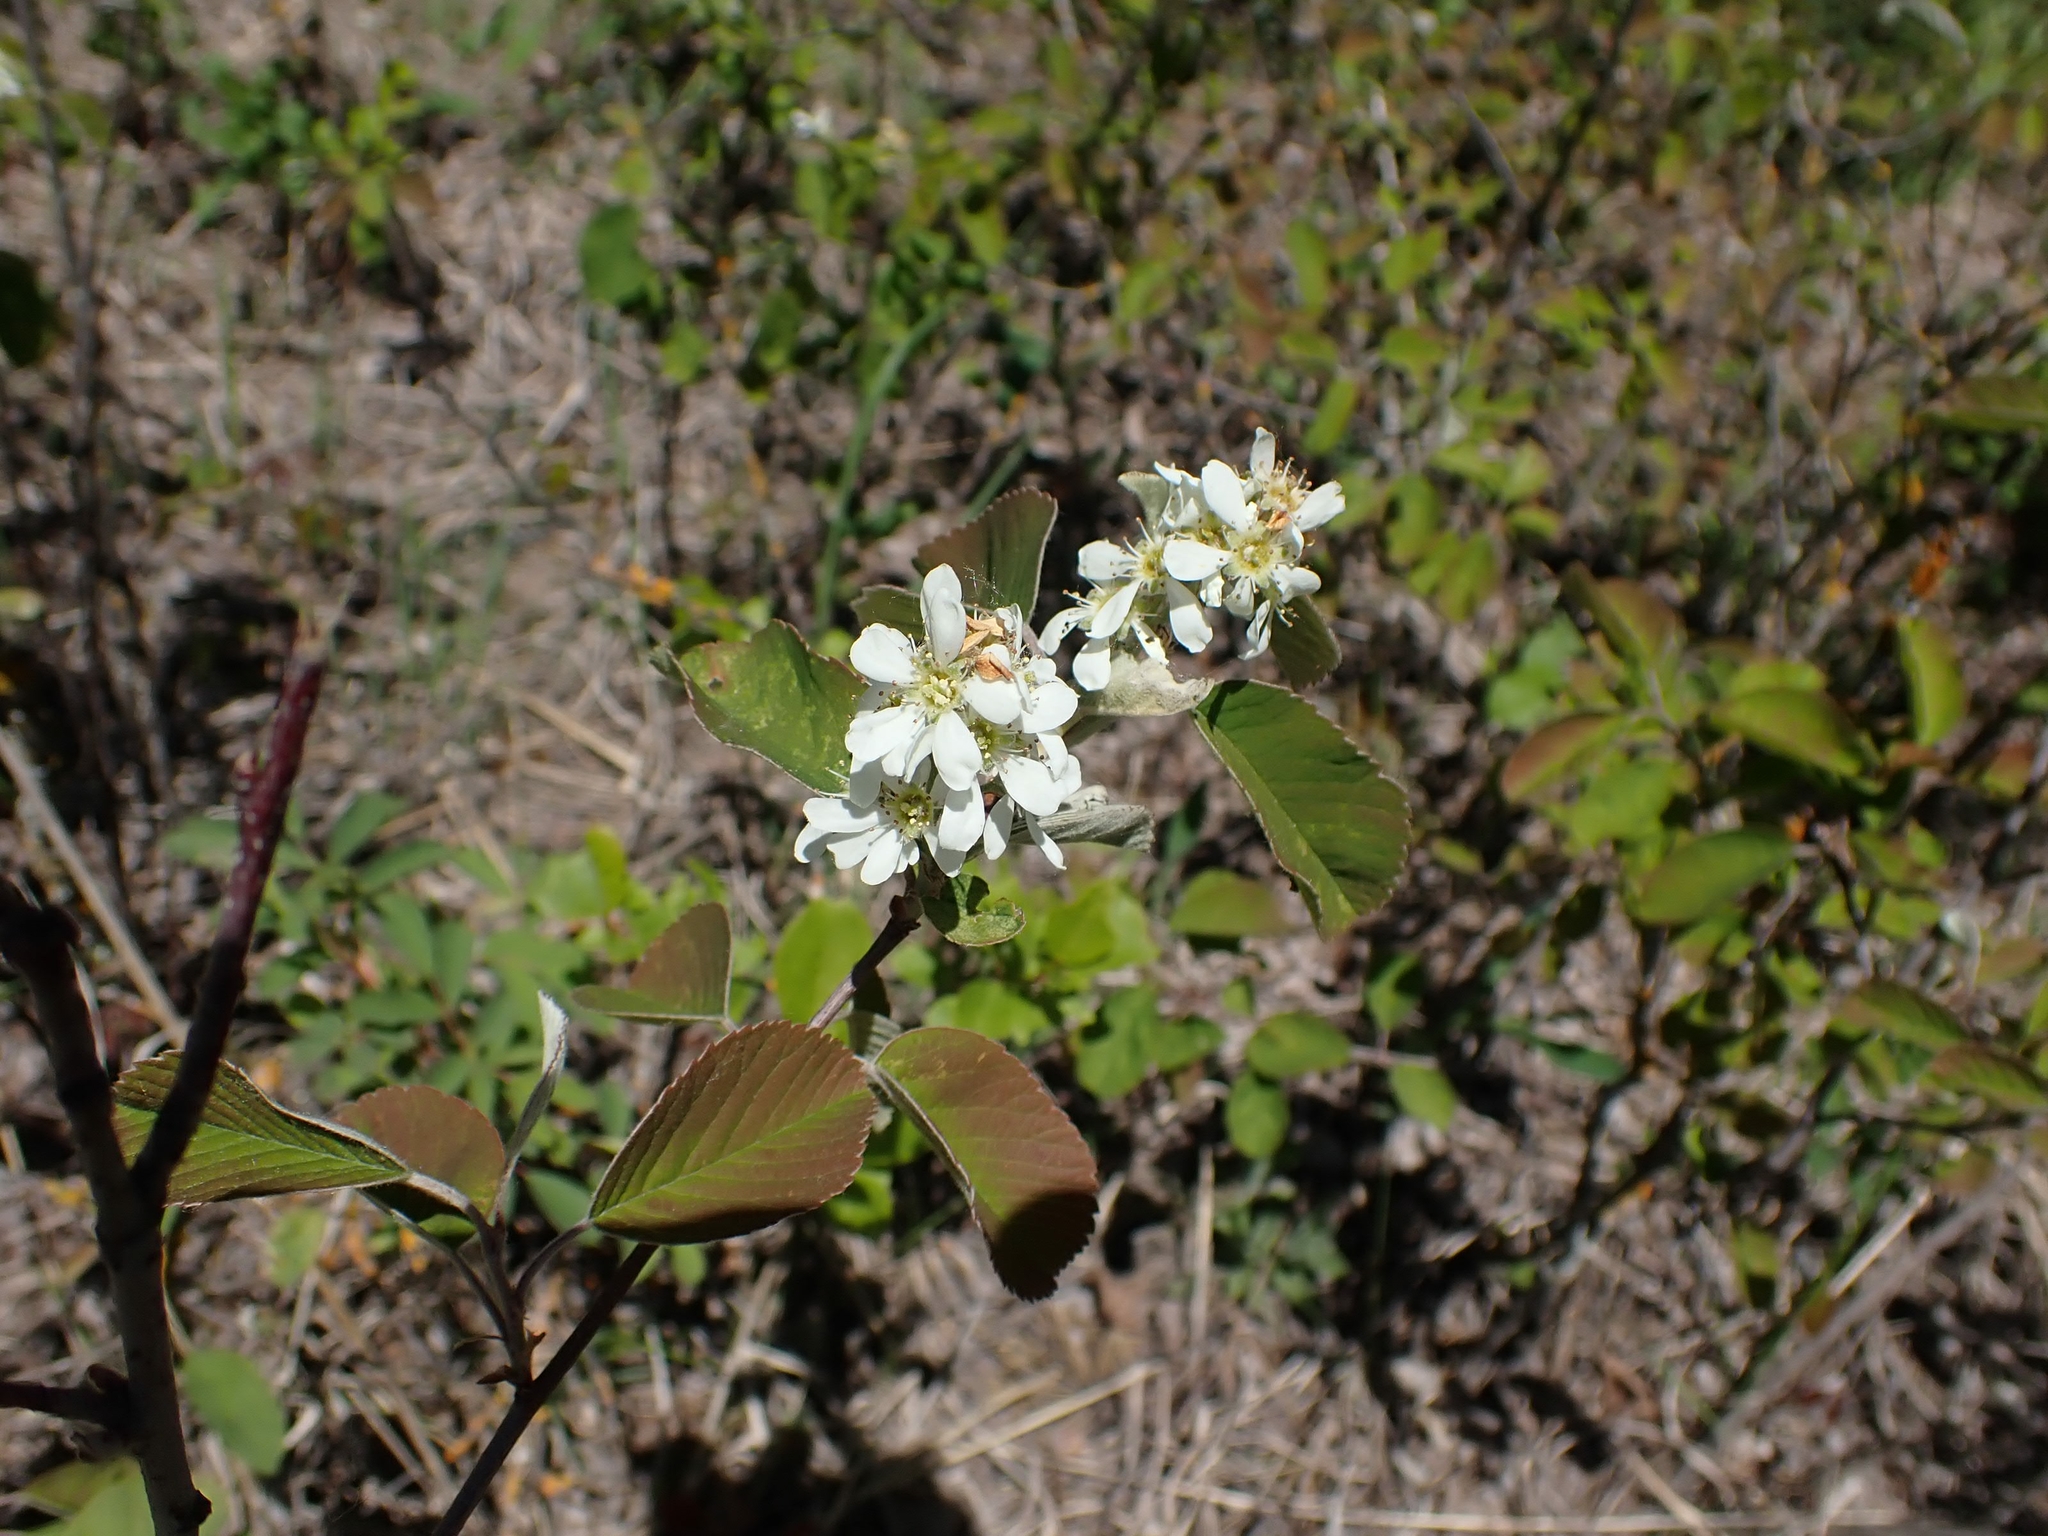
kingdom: Plantae
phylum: Tracheophyta
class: Magnoliopsida
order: Rosales
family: Rosaceae
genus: Amelanchier
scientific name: Amelanchier alnifolia
